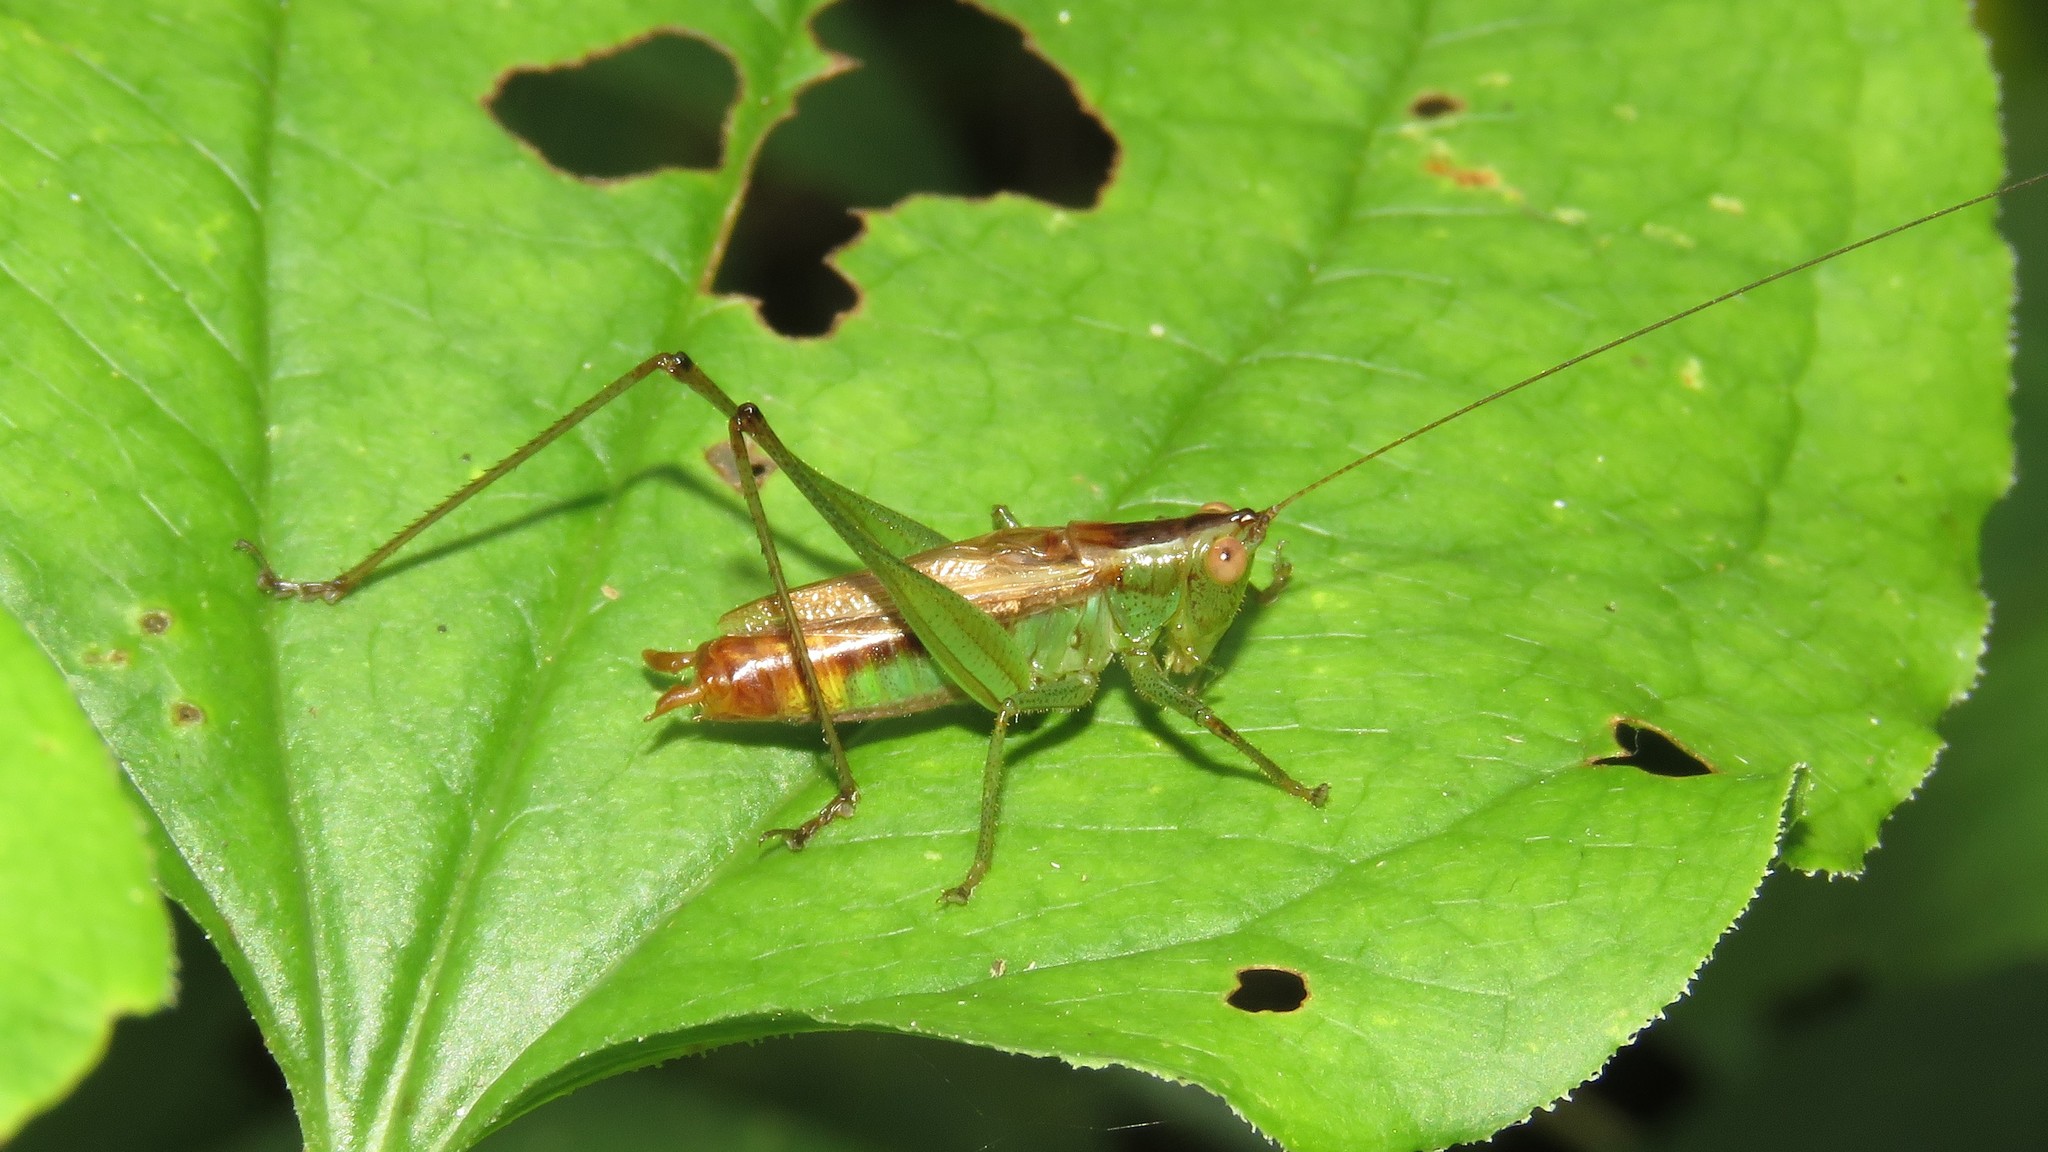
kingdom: Animalia
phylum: Arthropoda
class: Insecta
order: Orthoptera
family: Tettigoniidae
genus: Conocephalus
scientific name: Conocephalus brevipennis
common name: Short-winged meadow katydid
